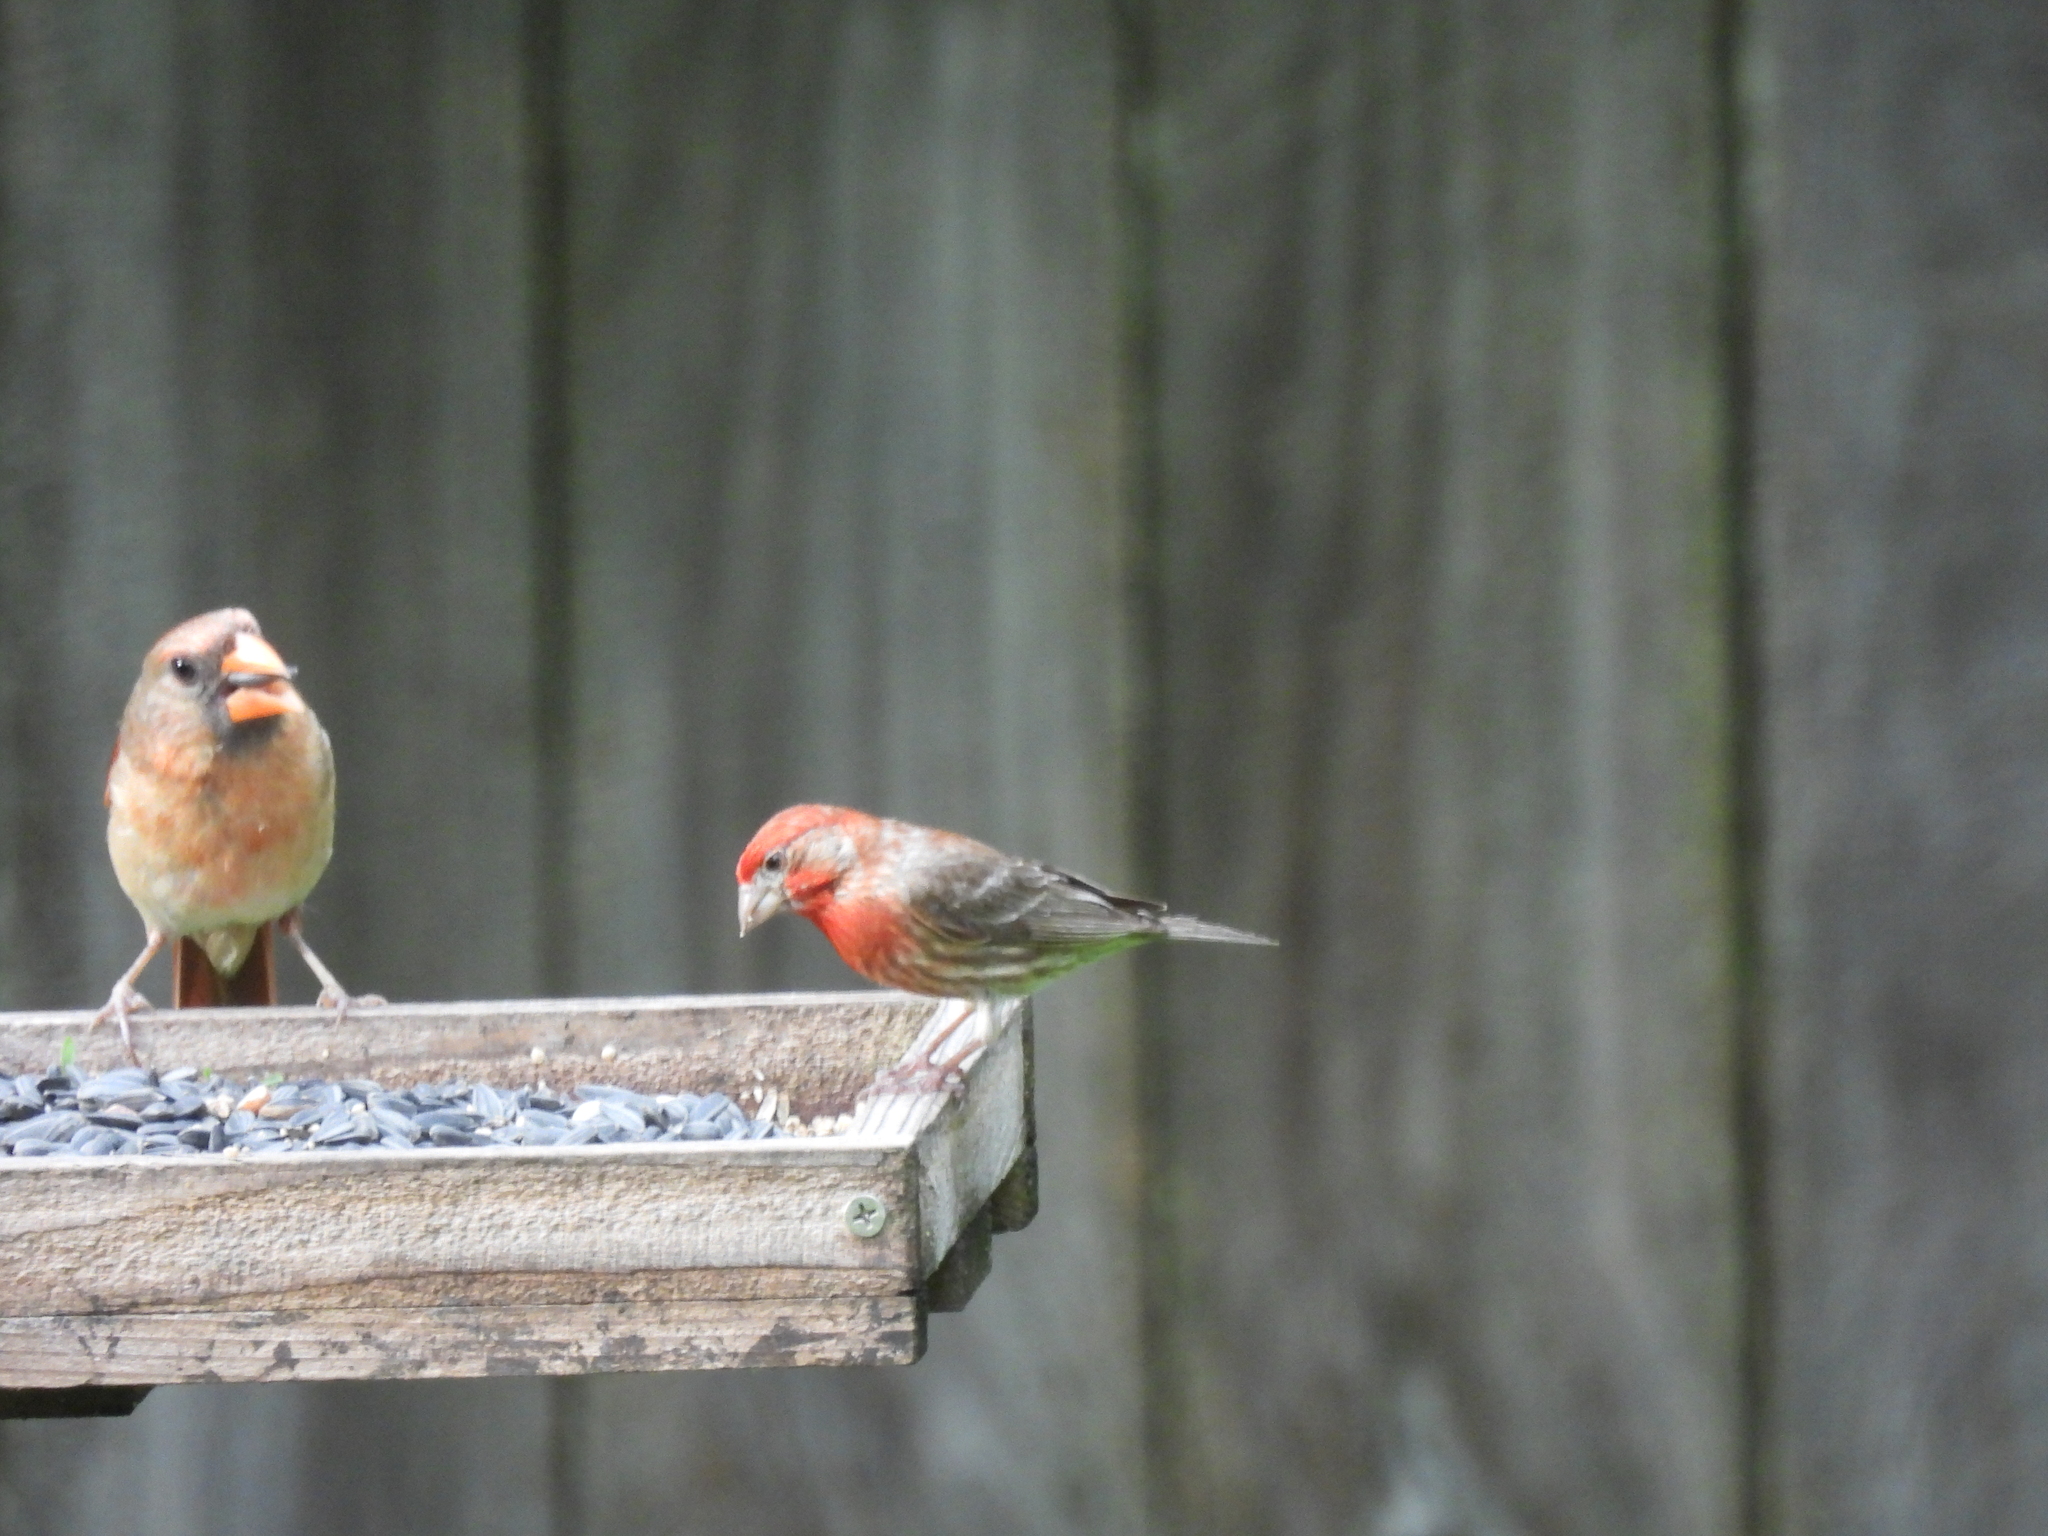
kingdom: Animalia
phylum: Chordata
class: Aves
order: Passeriformes
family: Fringillidae
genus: Haemorhous
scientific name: Haemorhous mexicanus
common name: House finch
